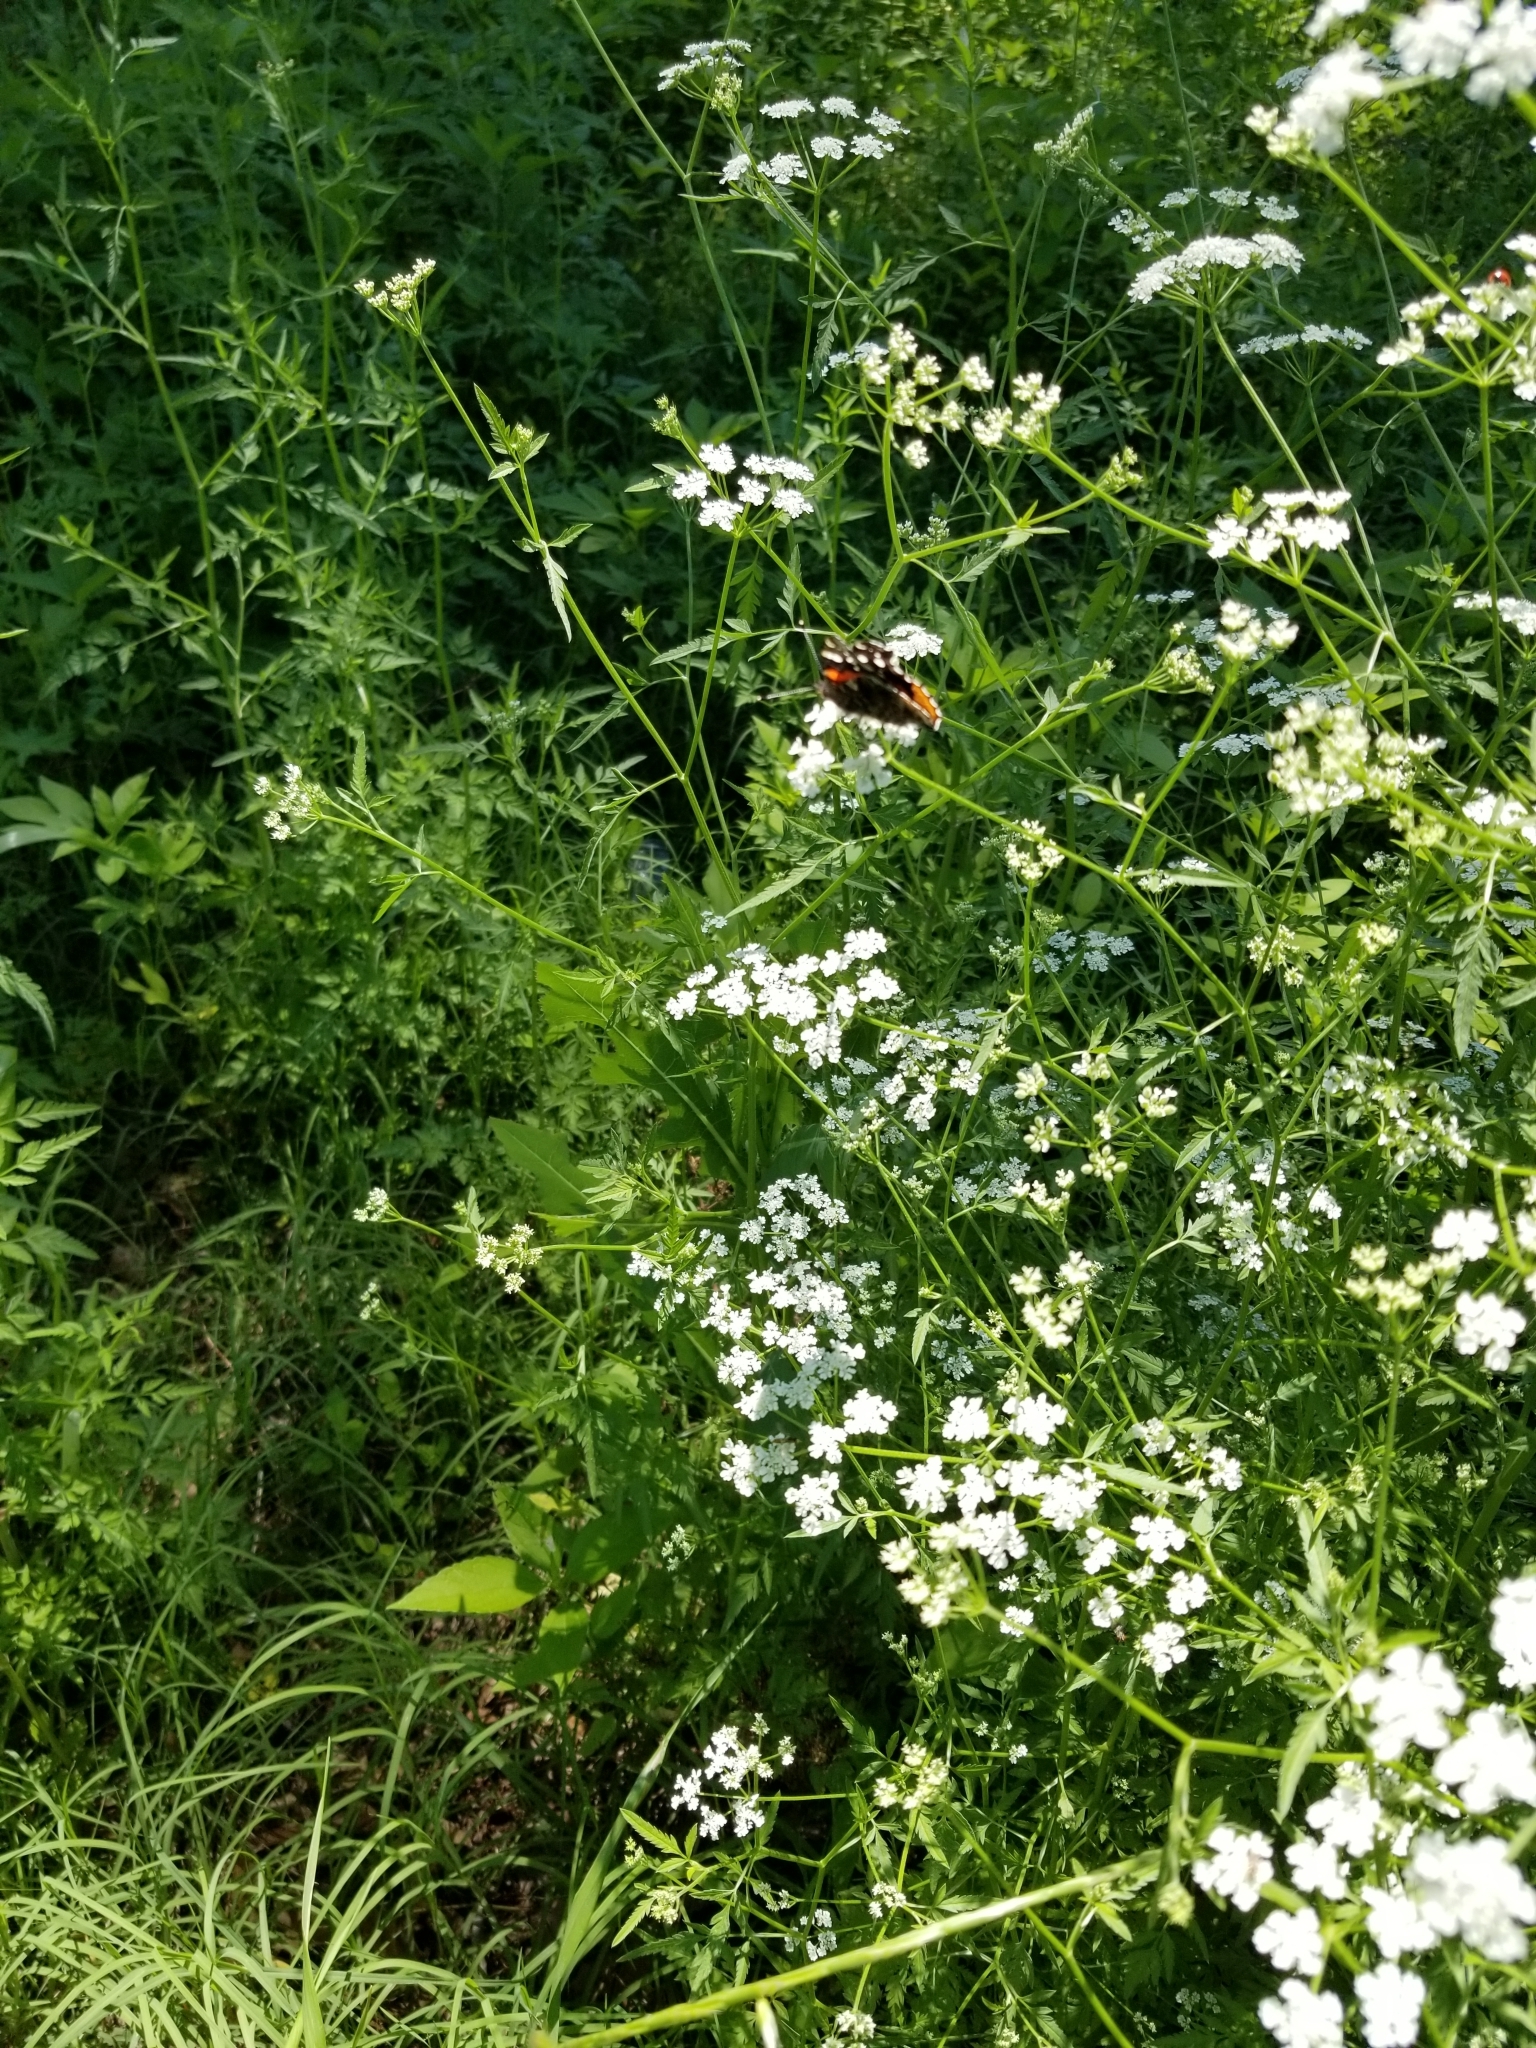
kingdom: Animalia
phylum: Arthropoda
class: Insecta
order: Lepidoptera
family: Nymphalidae
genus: Vanessa
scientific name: Vanessa atalanta
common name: Red admiral
